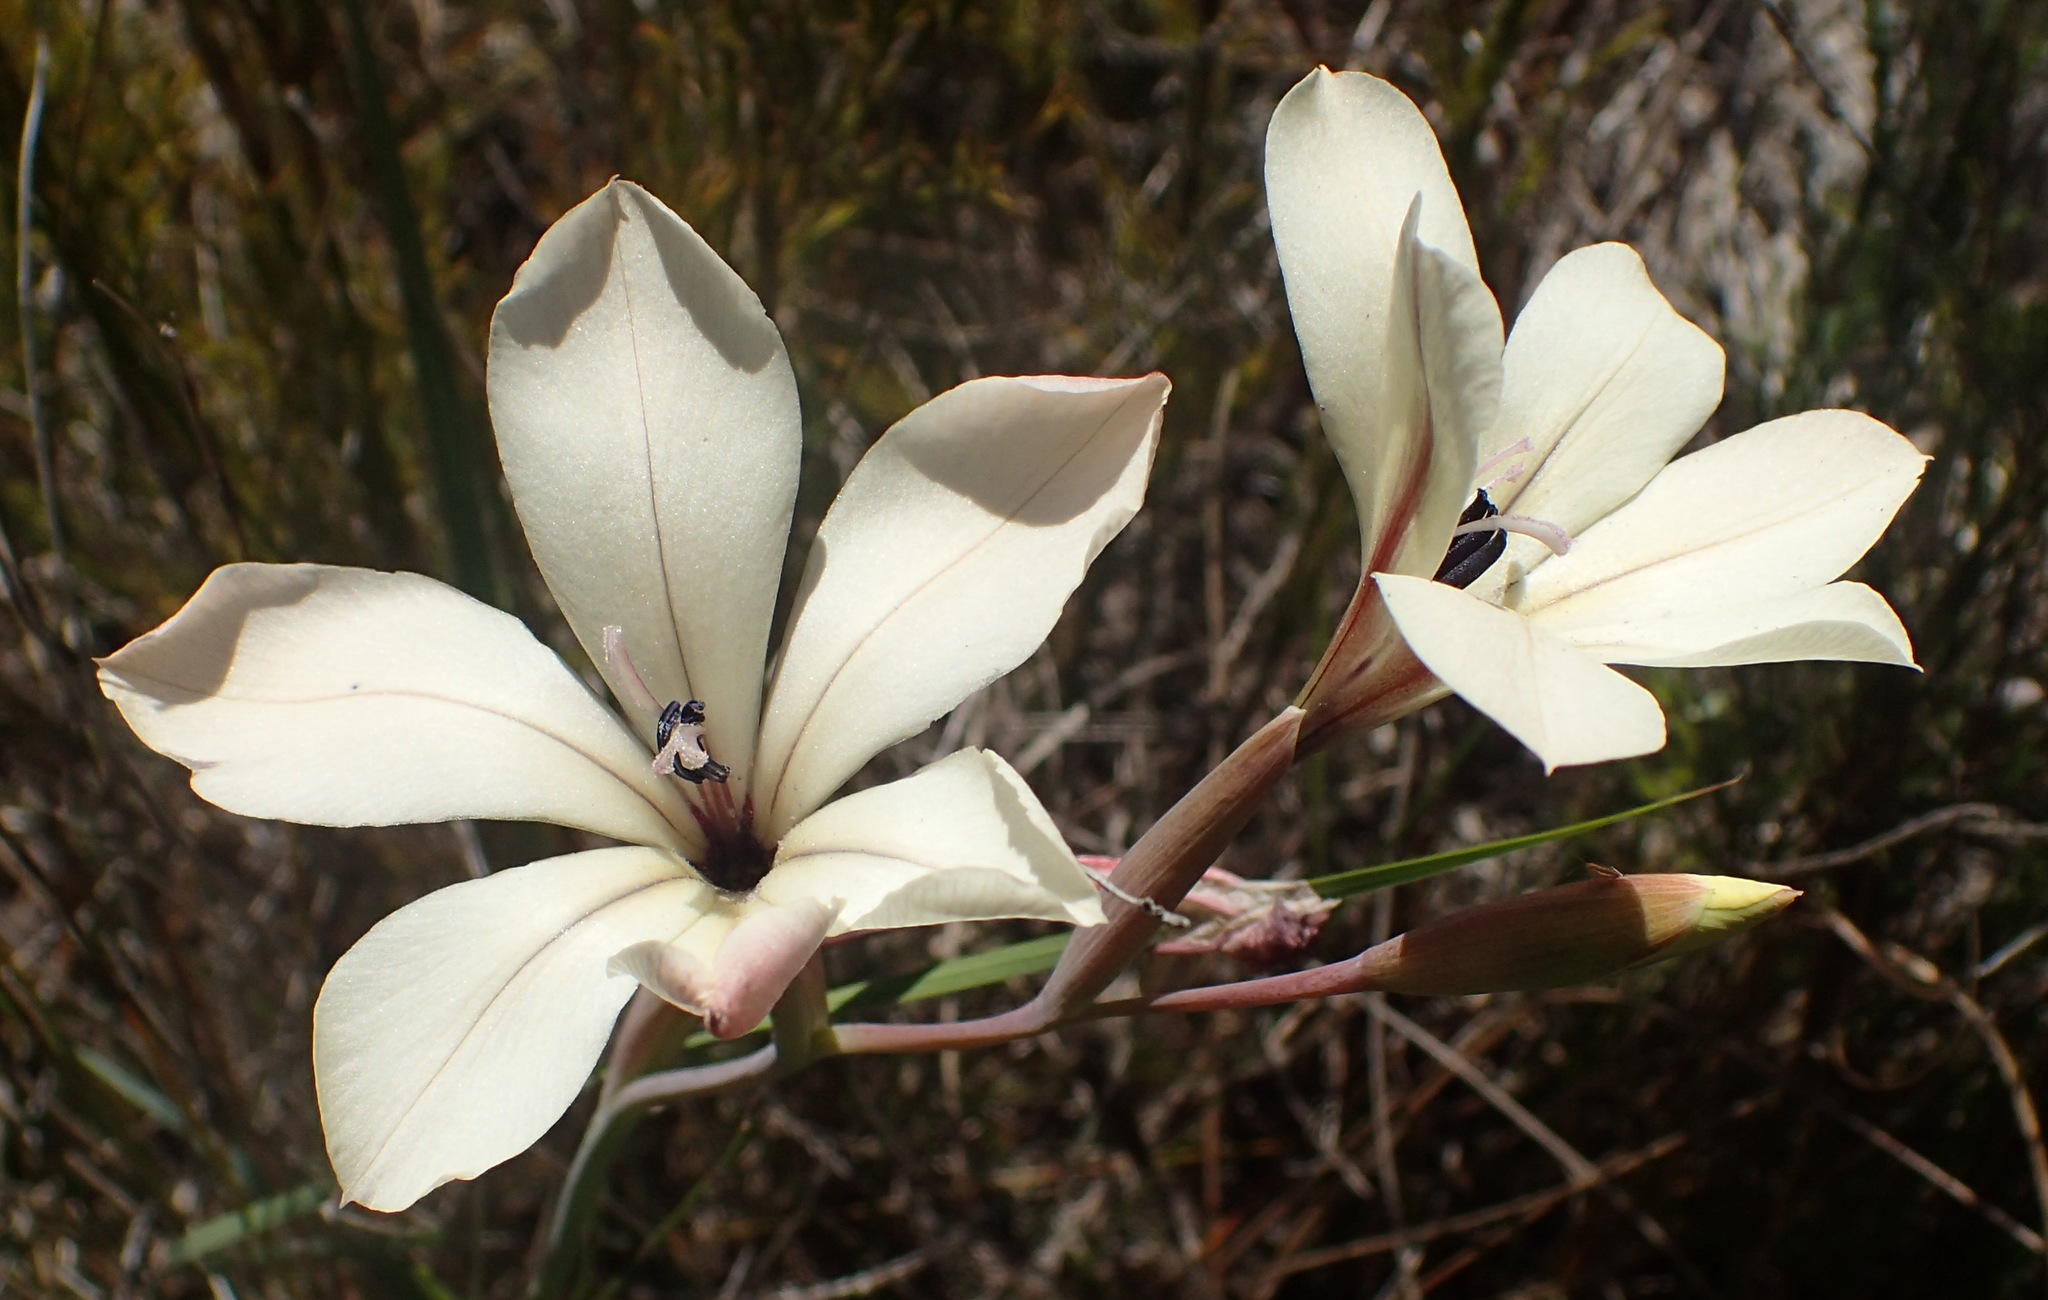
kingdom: Plantae
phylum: Tracheophyta
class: Liliopsida
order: Asparagales
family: Iridaceae
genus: Gladiolus
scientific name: Gladiolus floribundus
